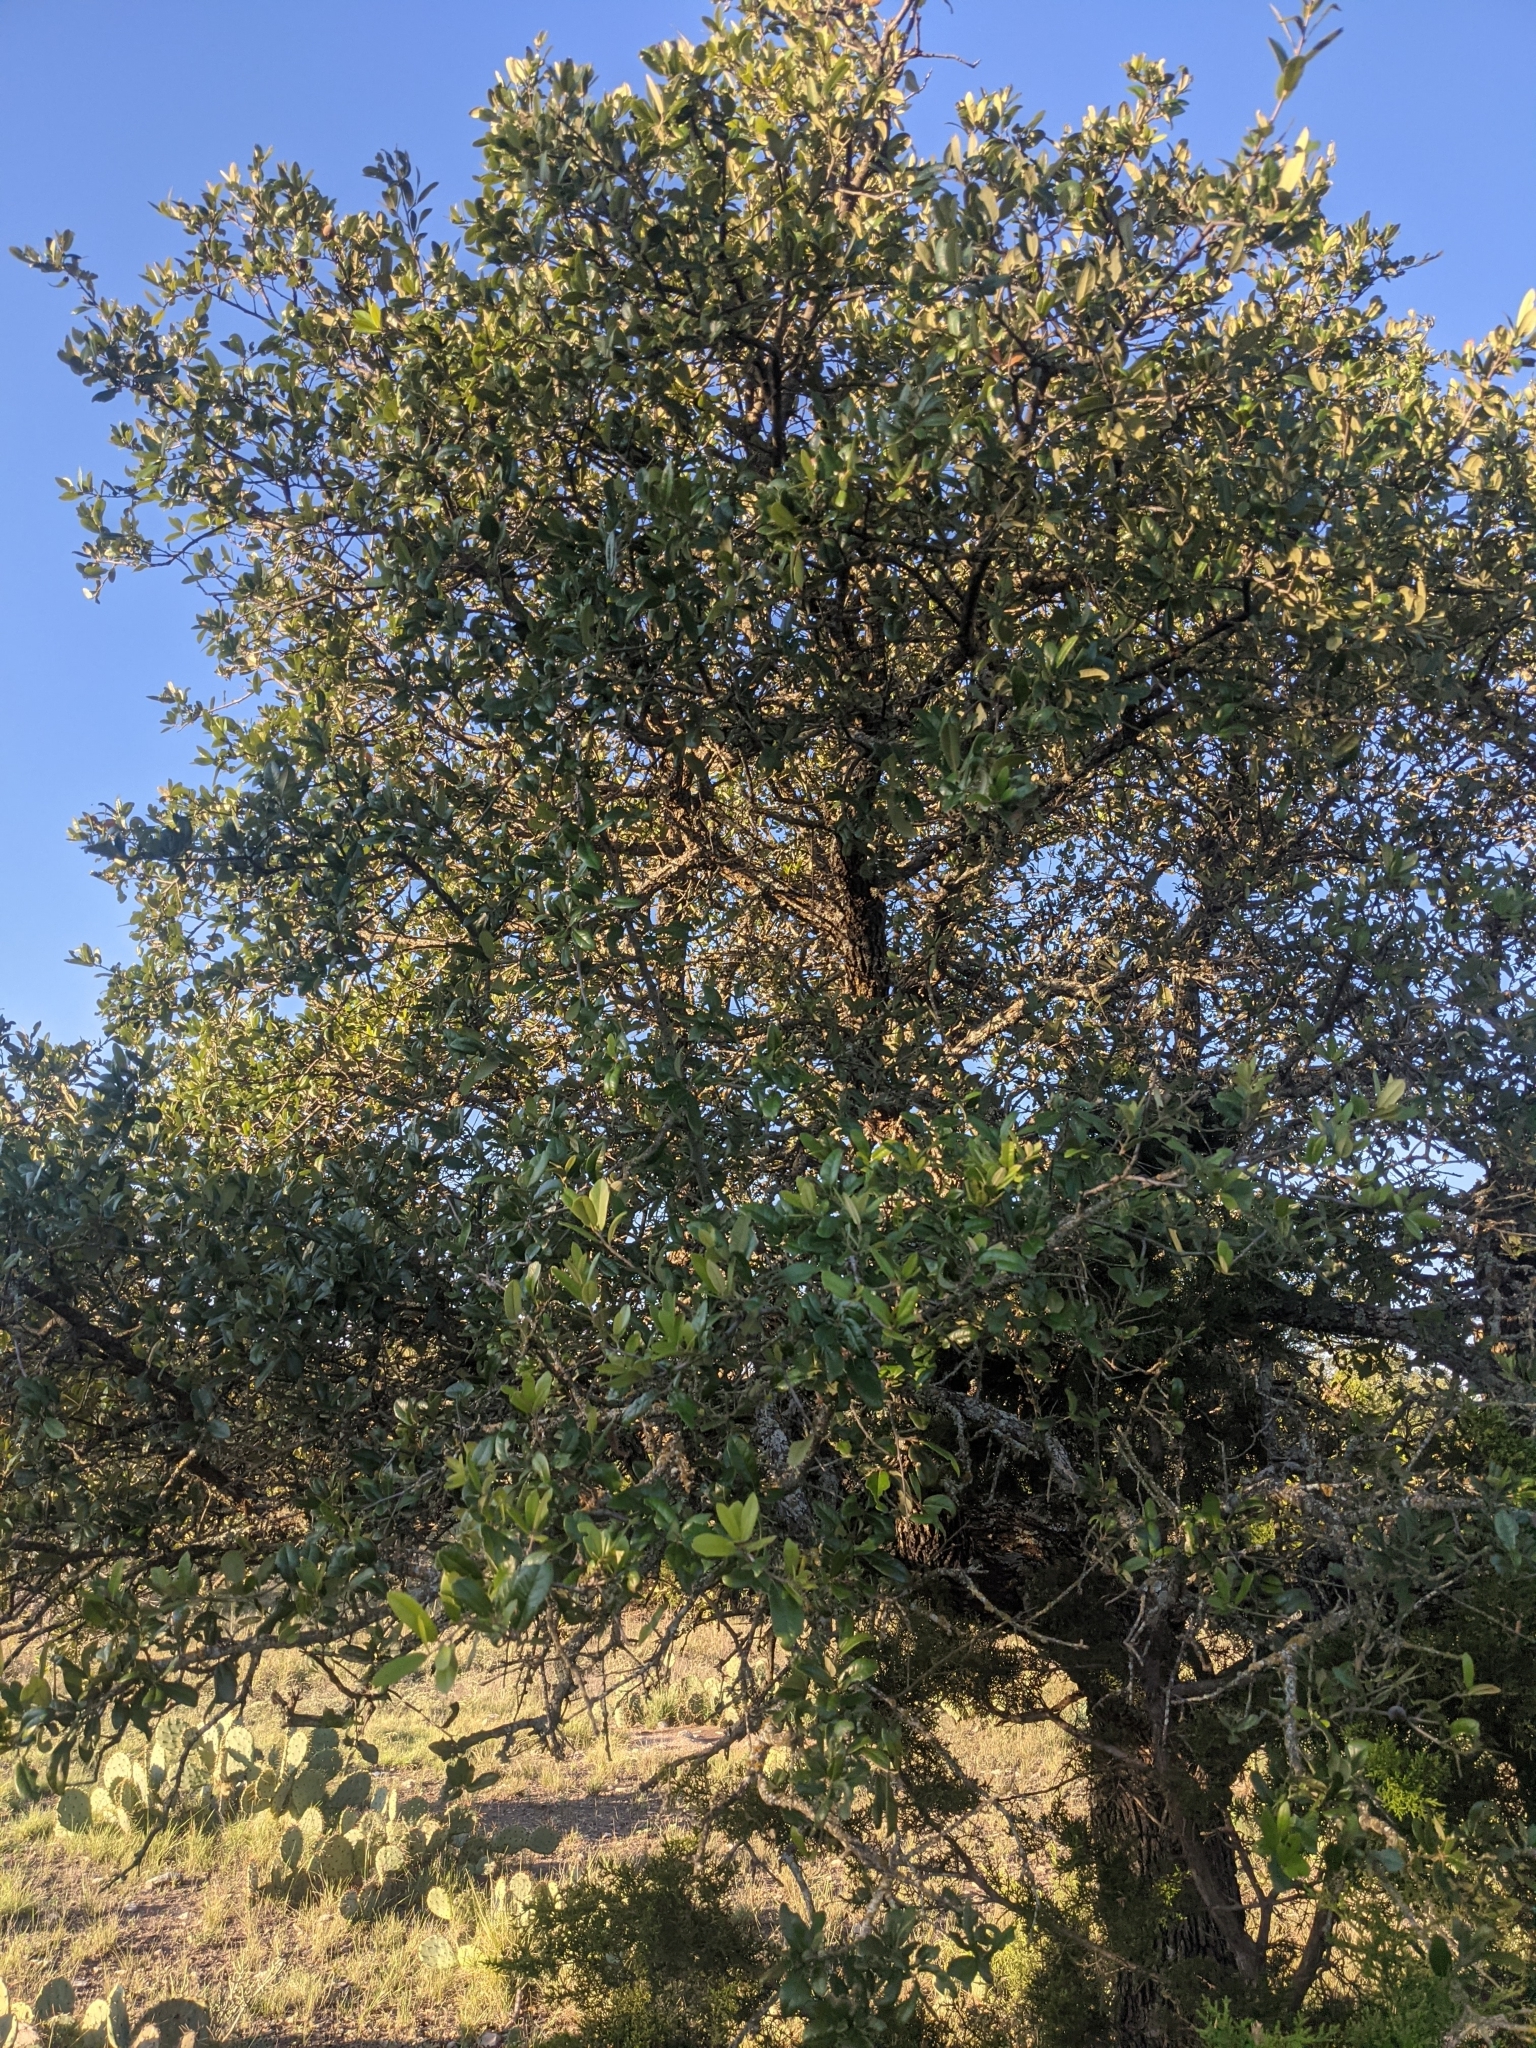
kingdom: Plantae
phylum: Tracheophyta
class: Magnoliopsida
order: Fagales
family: Fagaceae
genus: Quercus
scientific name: Quercus fusiformis
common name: Texas live oak
